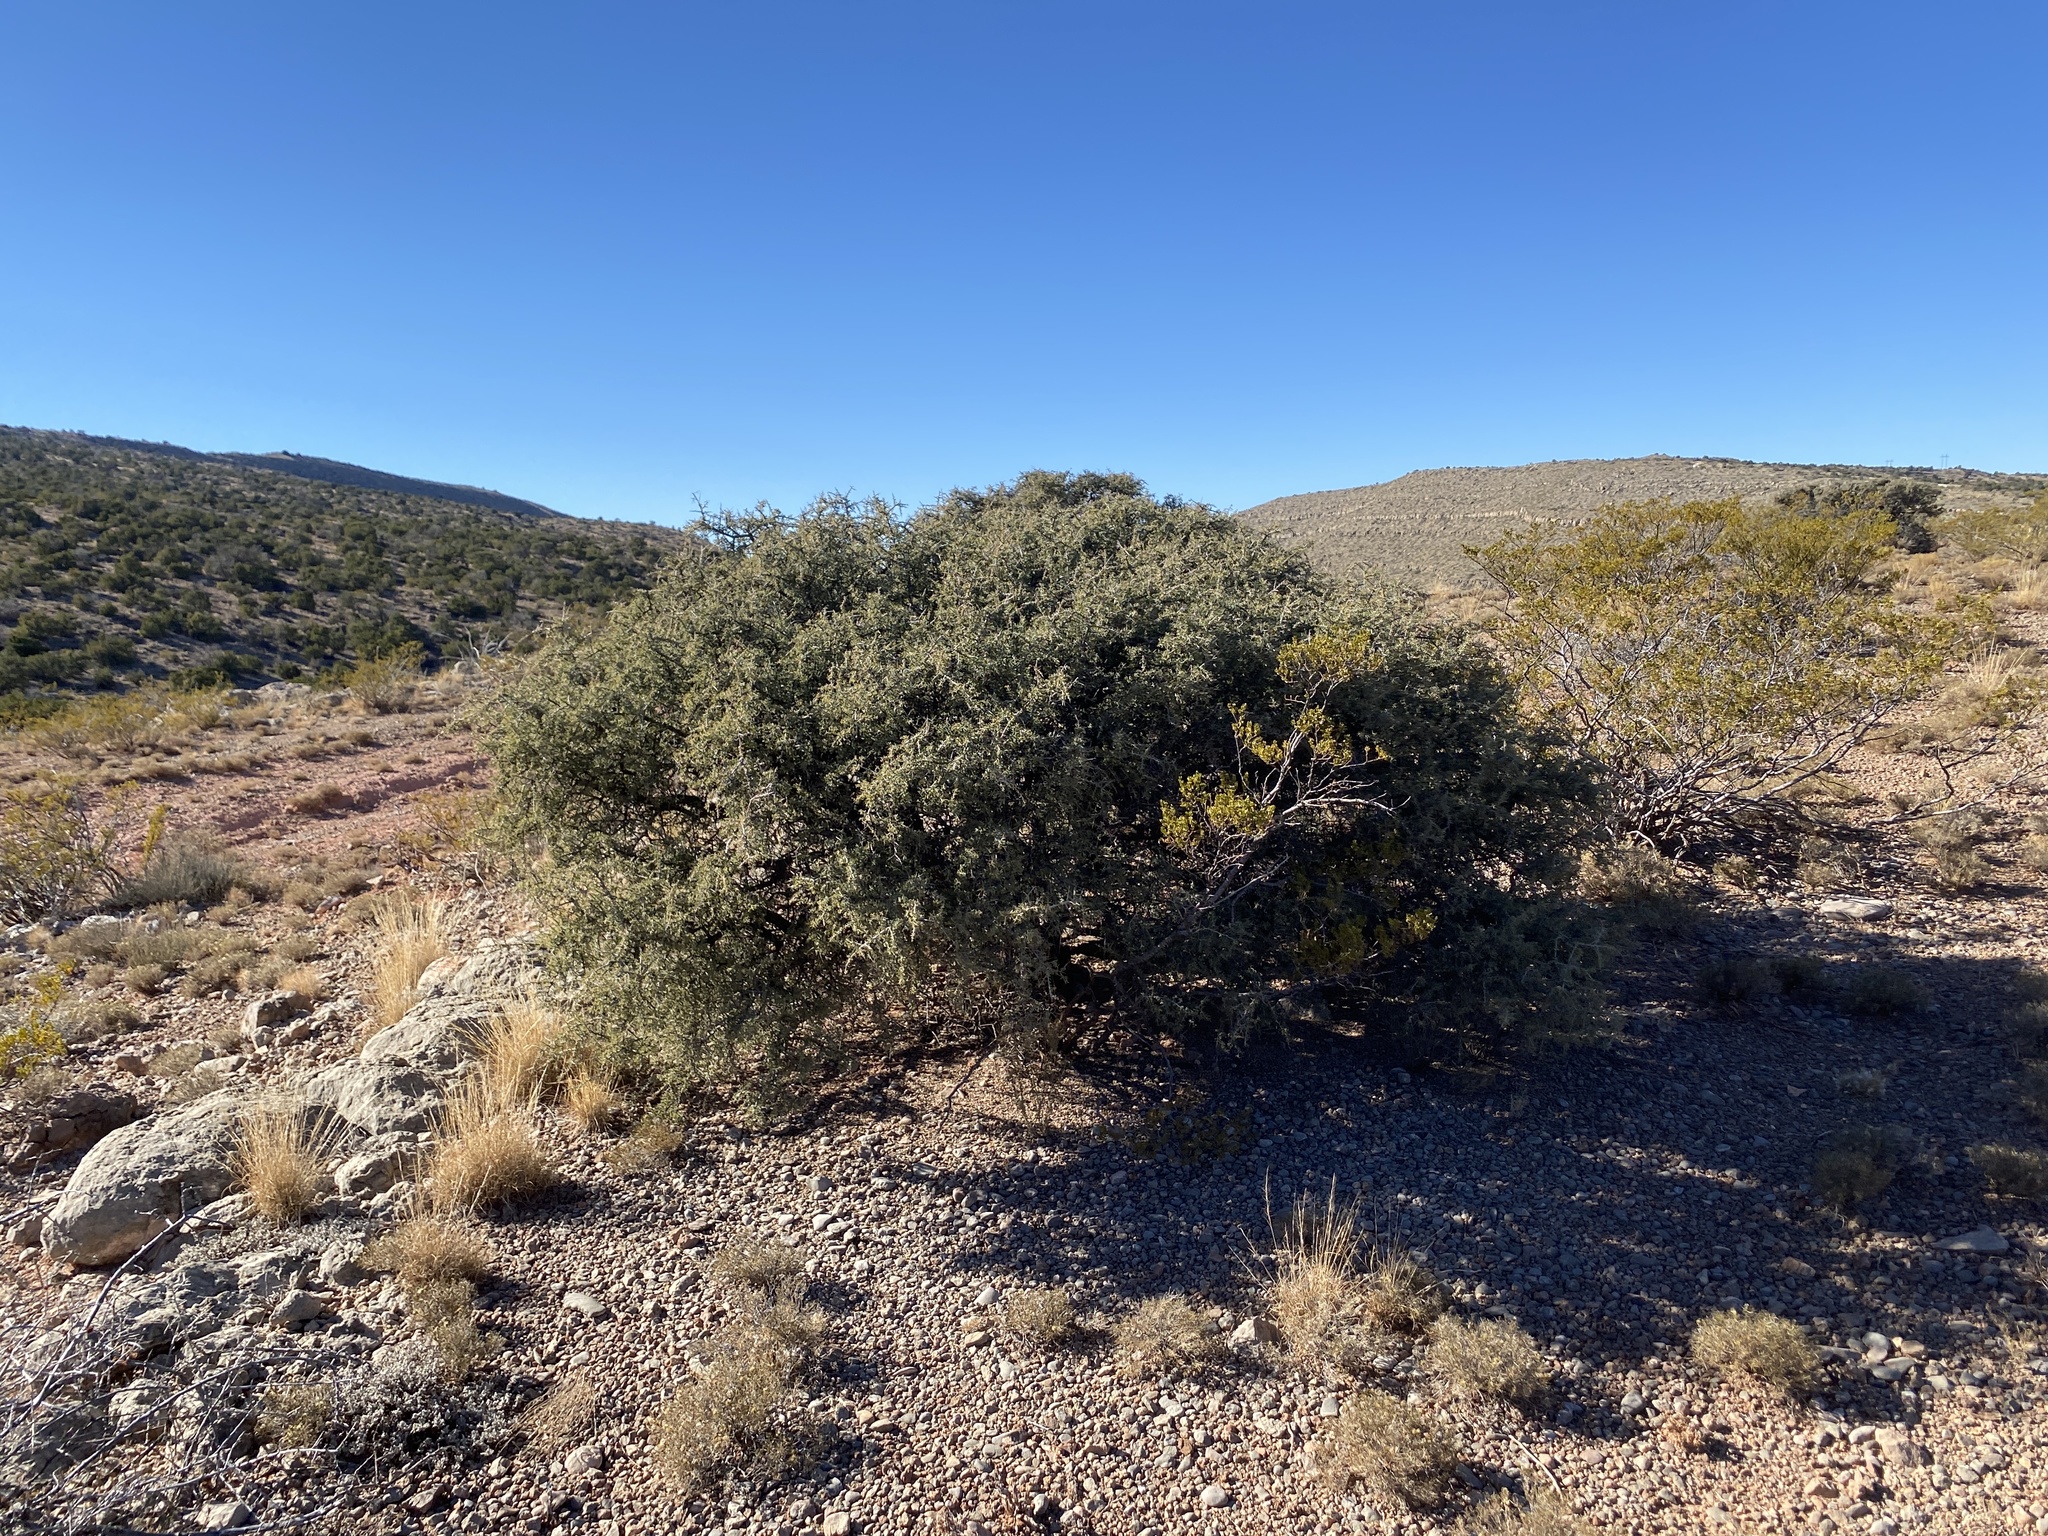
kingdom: Plantae
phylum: Tracheophyta
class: Magnoliopsida
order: Rosales
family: Rhamnaceae
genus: Condalia
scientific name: Condalia warnockii
